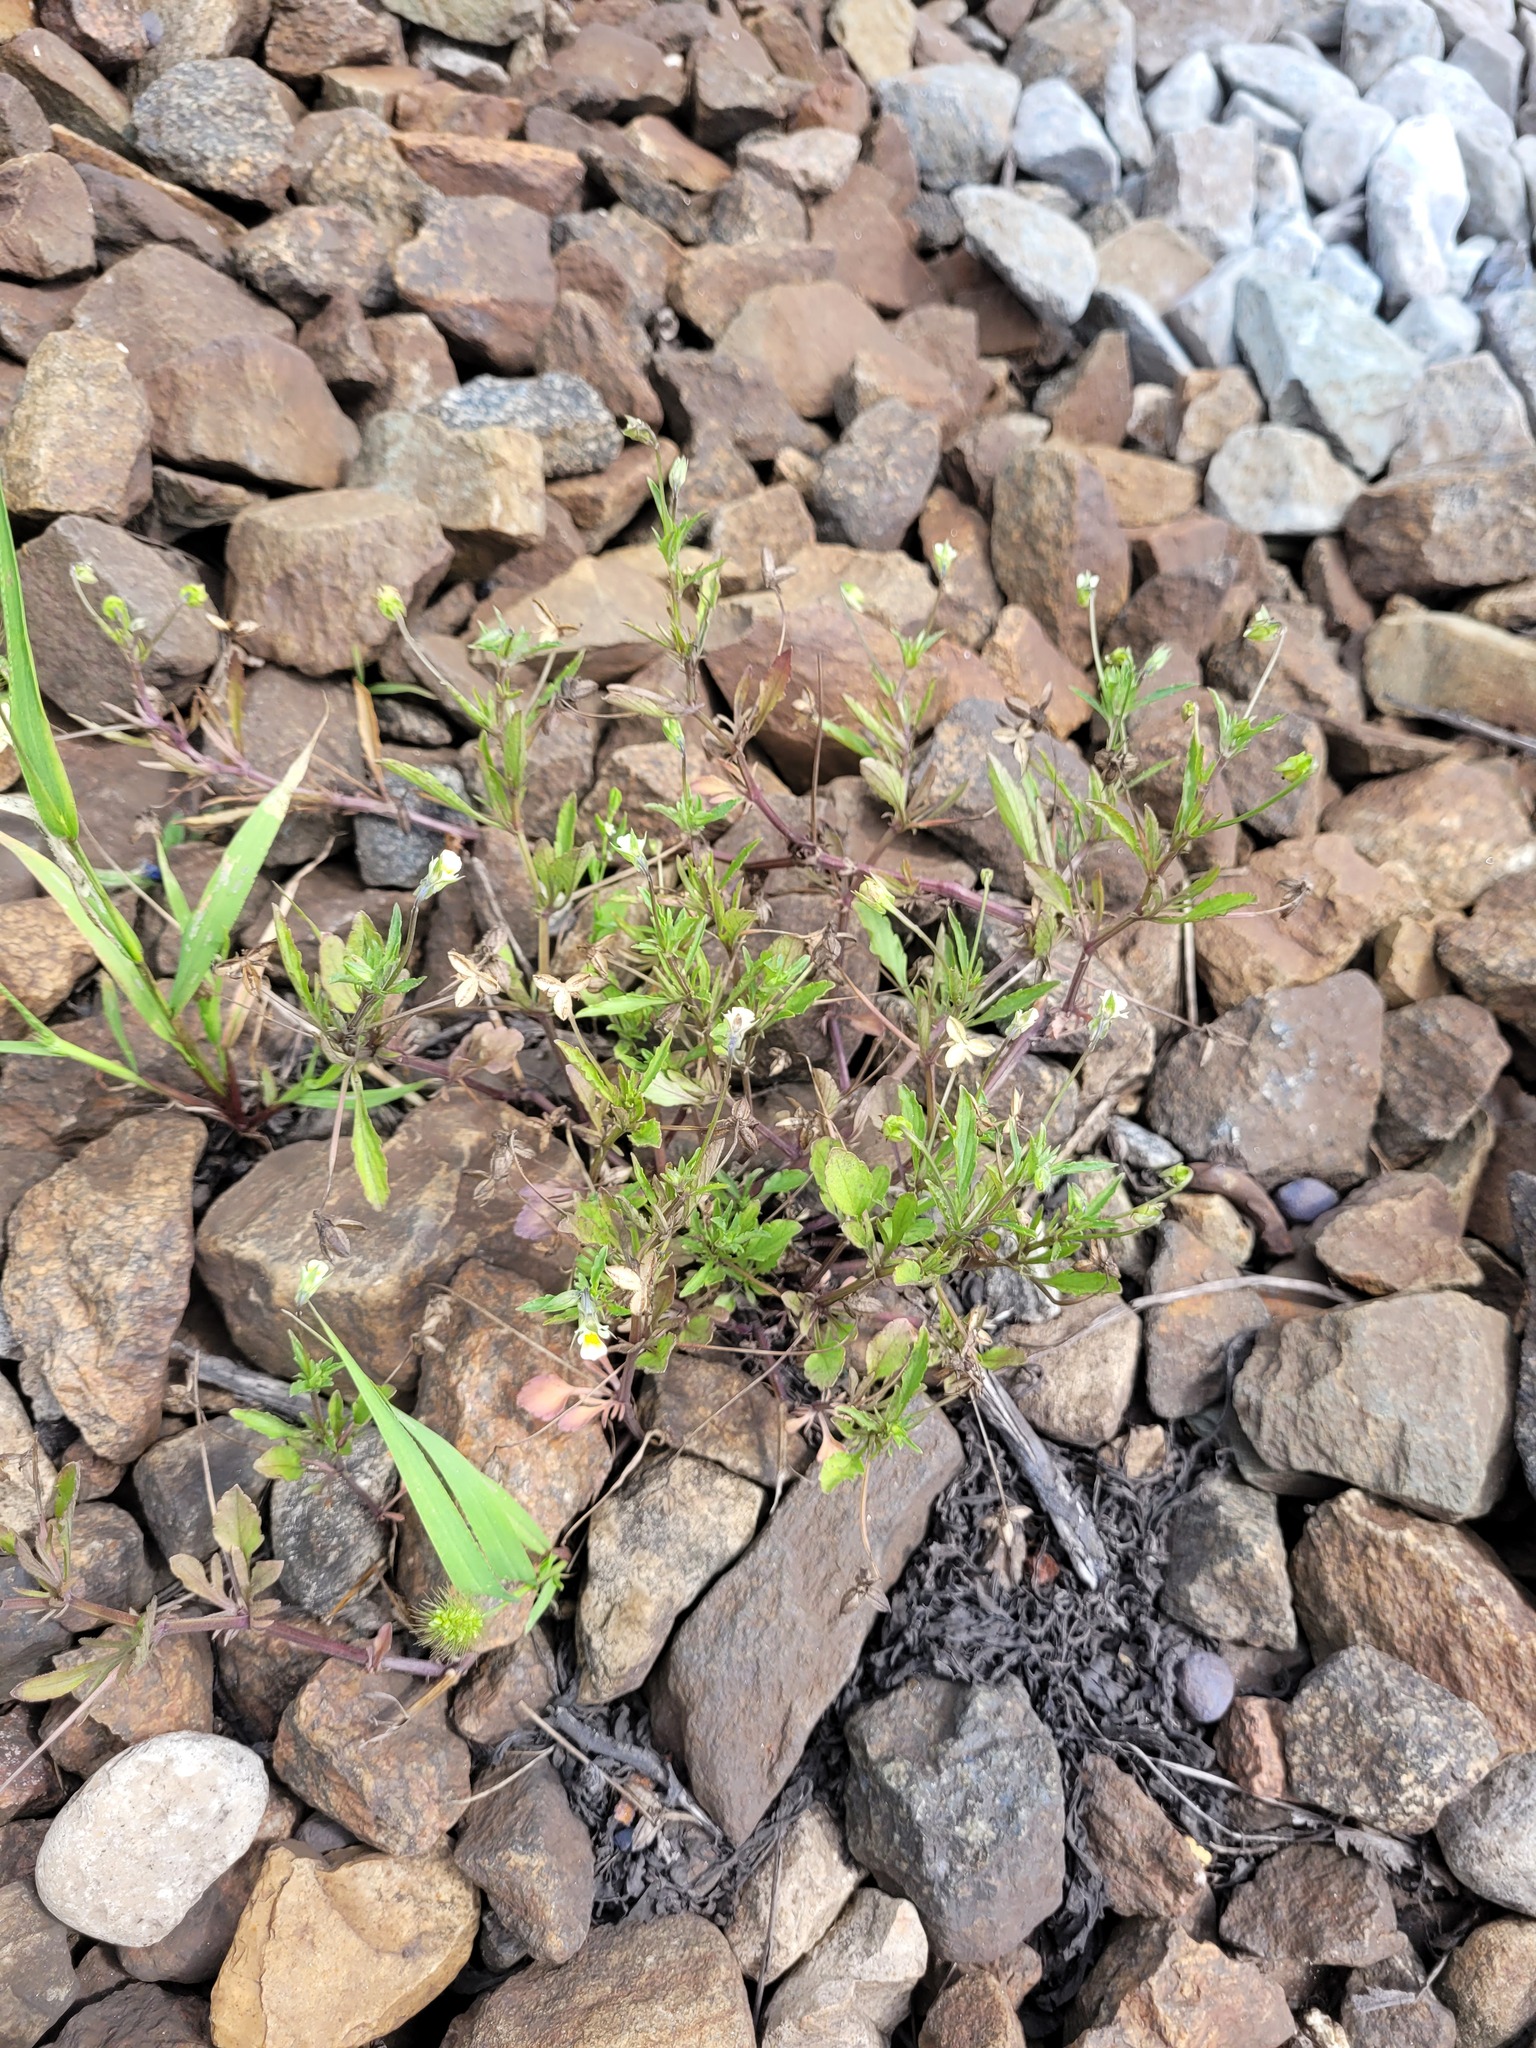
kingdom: Plantae
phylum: Tracheophyta
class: Magnoliopsida
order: Malpighiales
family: Violaceae
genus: Viola
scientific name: Viola arvensis
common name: Field pansy
